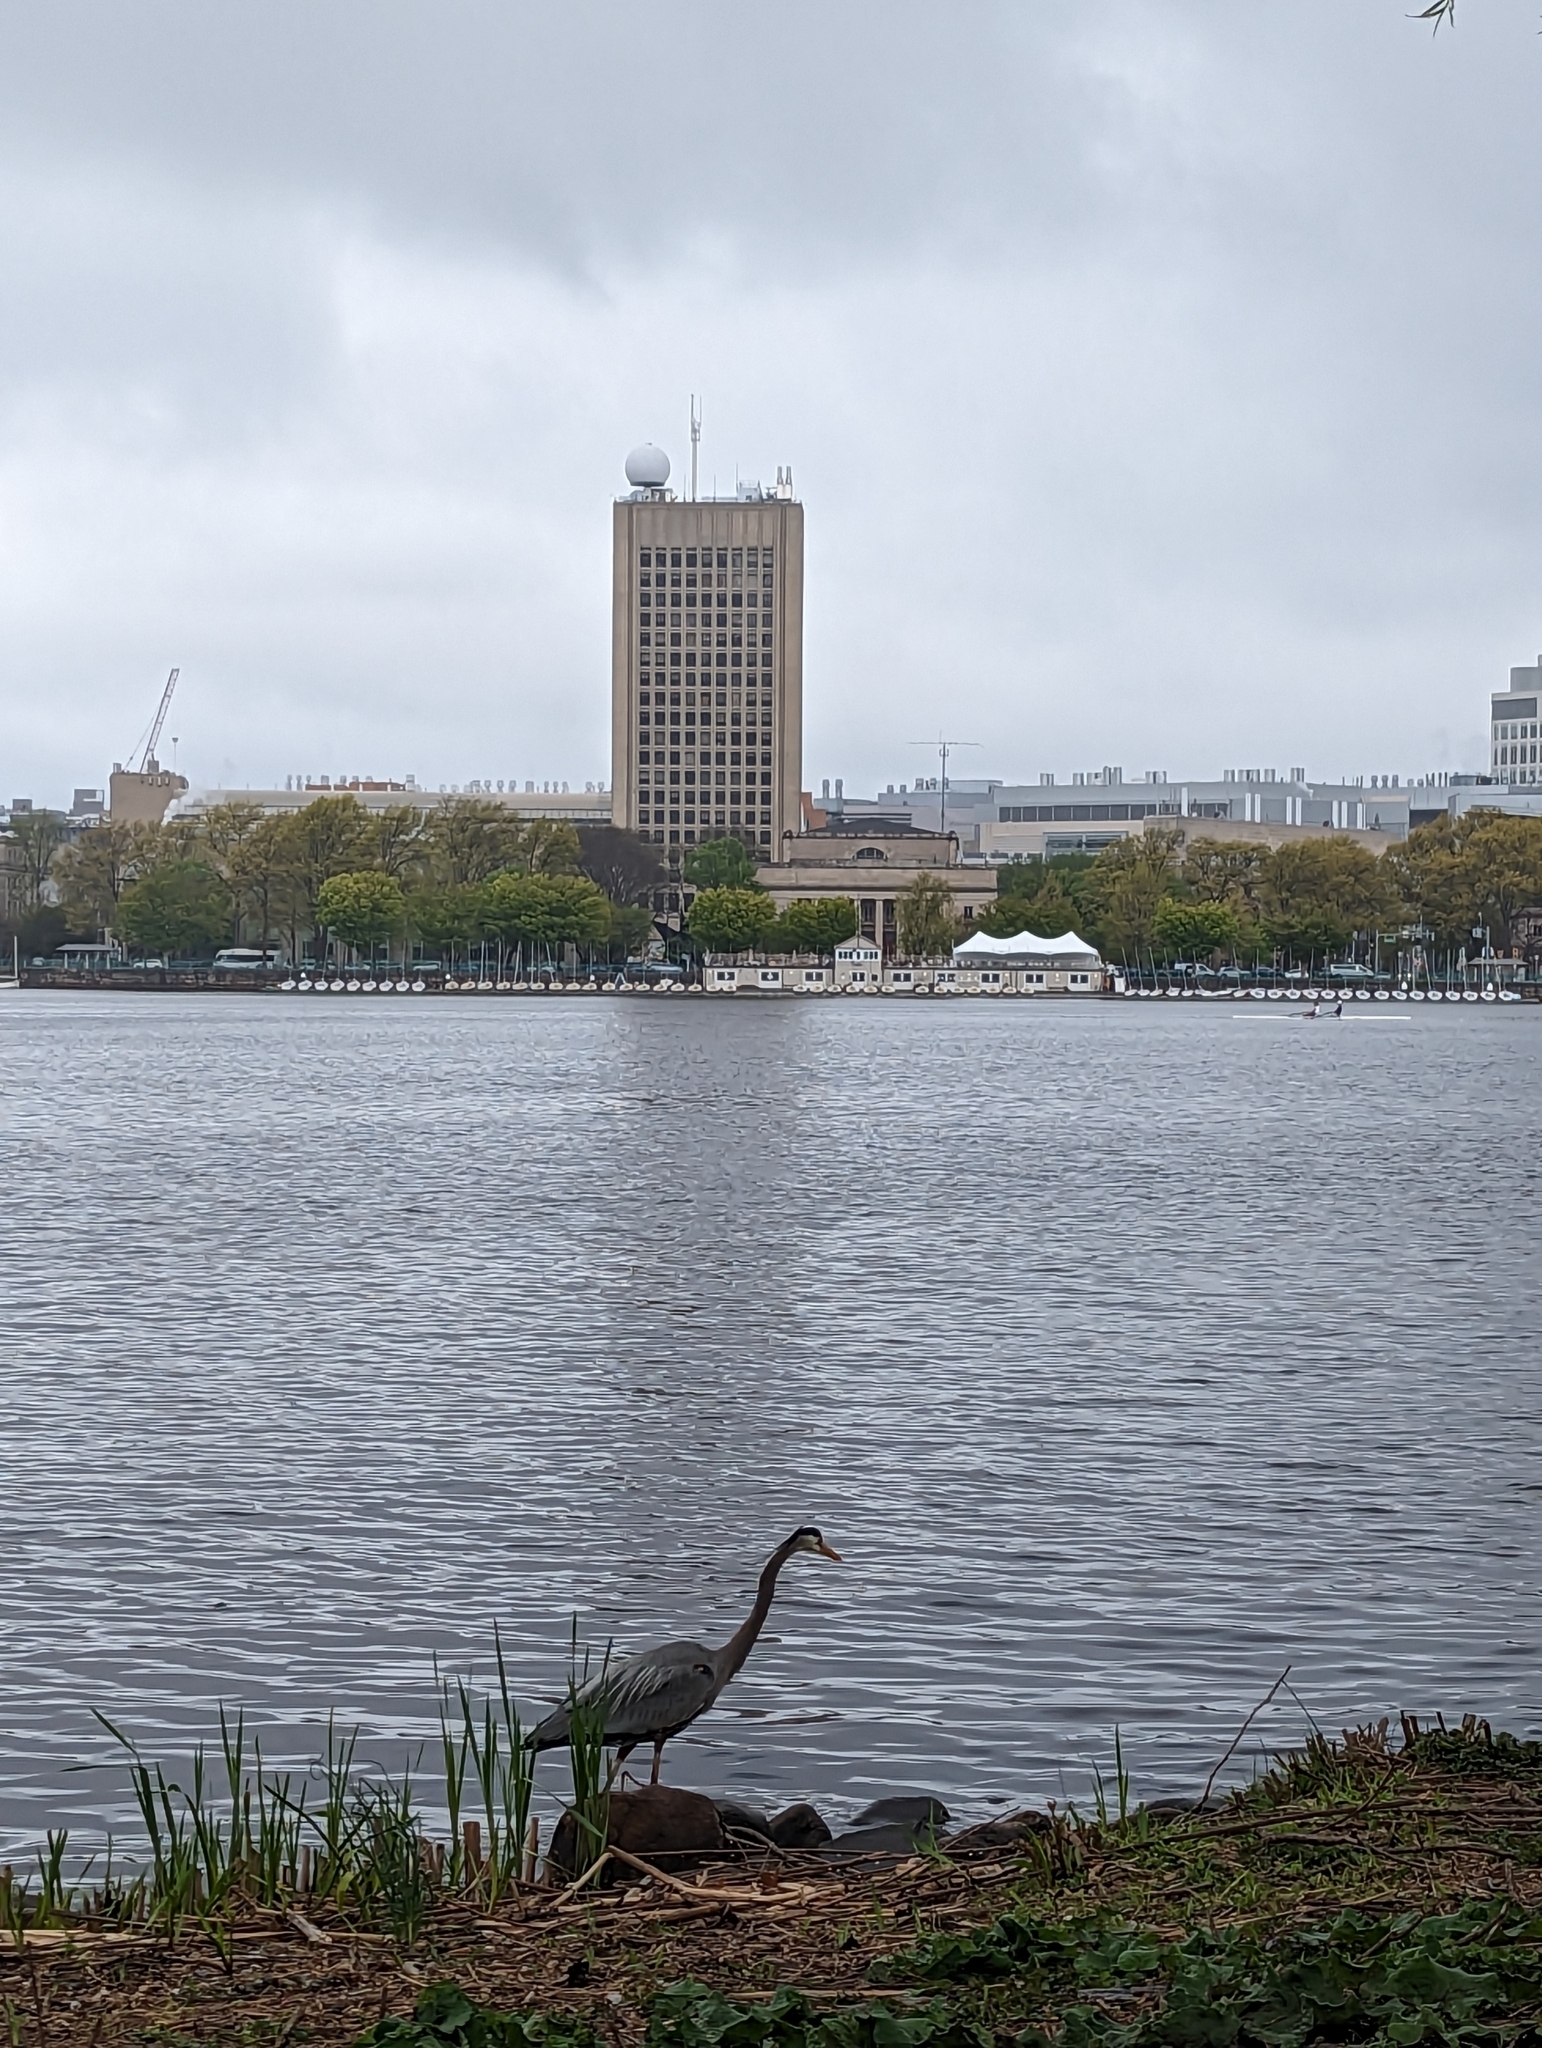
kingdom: Animalia
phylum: Chordata
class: Aves
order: Pelecaniformes
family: Ardeidae
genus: Ardea
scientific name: Ardea herodias
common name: Great blue heron
